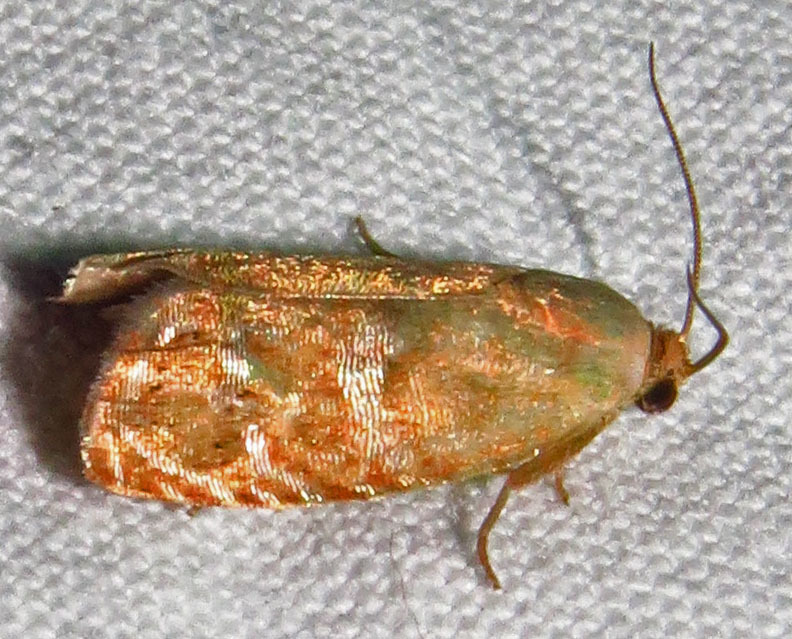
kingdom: Animalia
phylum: Arthropoda
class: Insecta
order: Lepidoptera
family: Tortricidae
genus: Cydia
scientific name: Cydia latiferreana
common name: Filbertworm moth
